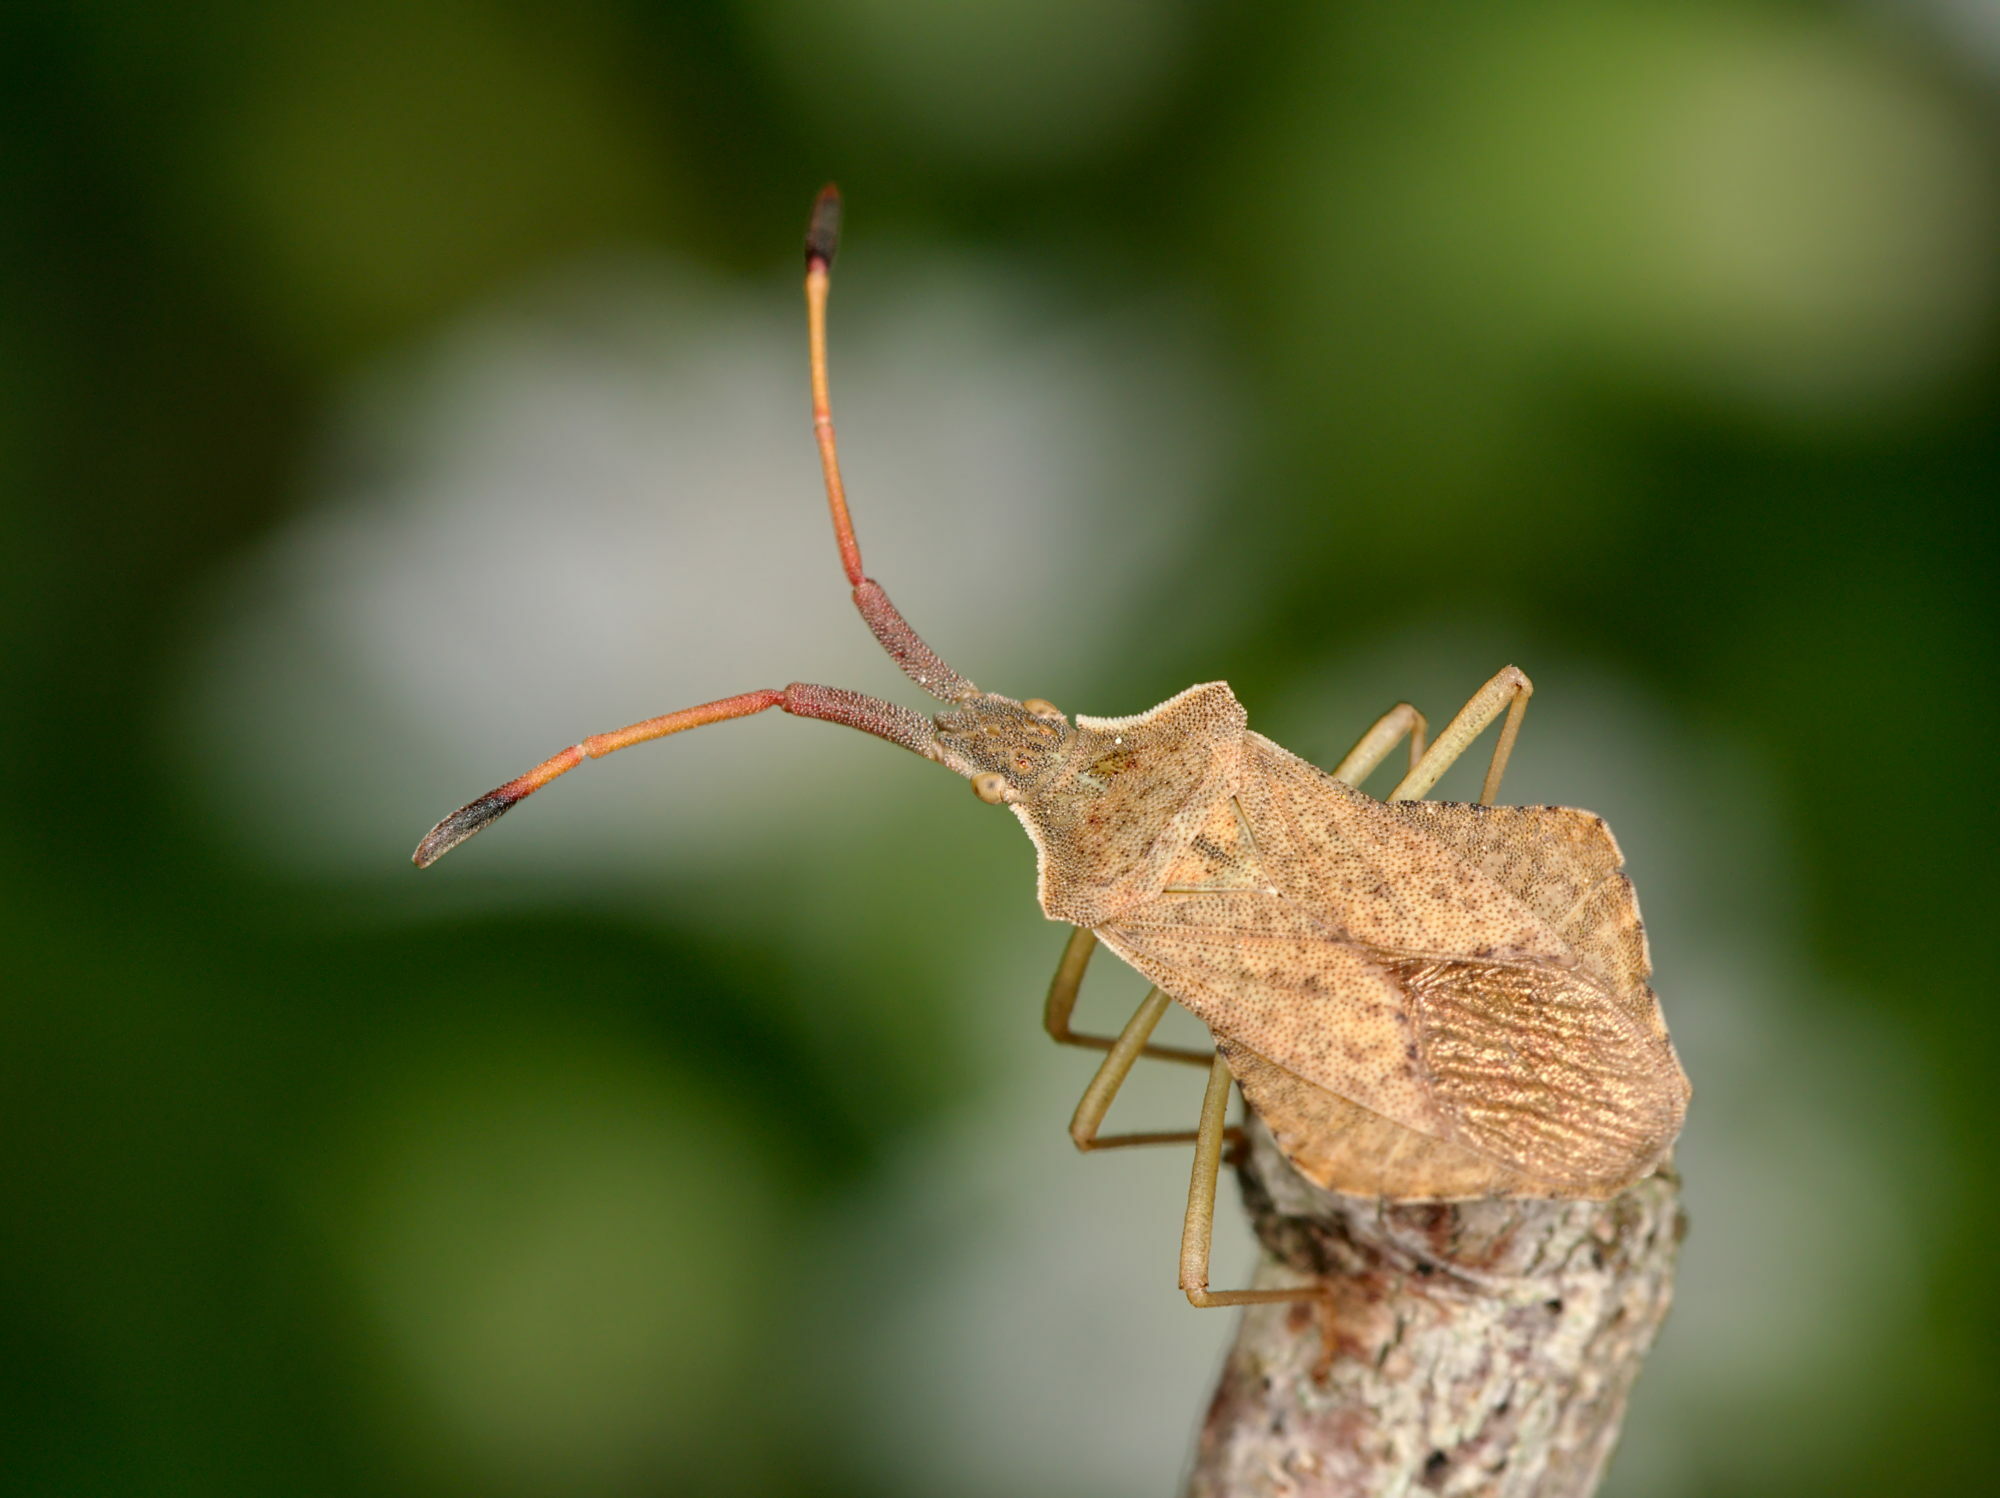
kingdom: Animalia
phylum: Arthropoda
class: Insecta
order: Hemiptera
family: Coreidae
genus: Syromastus
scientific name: Syromastus rhombeus
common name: Rhombic leatherbug
